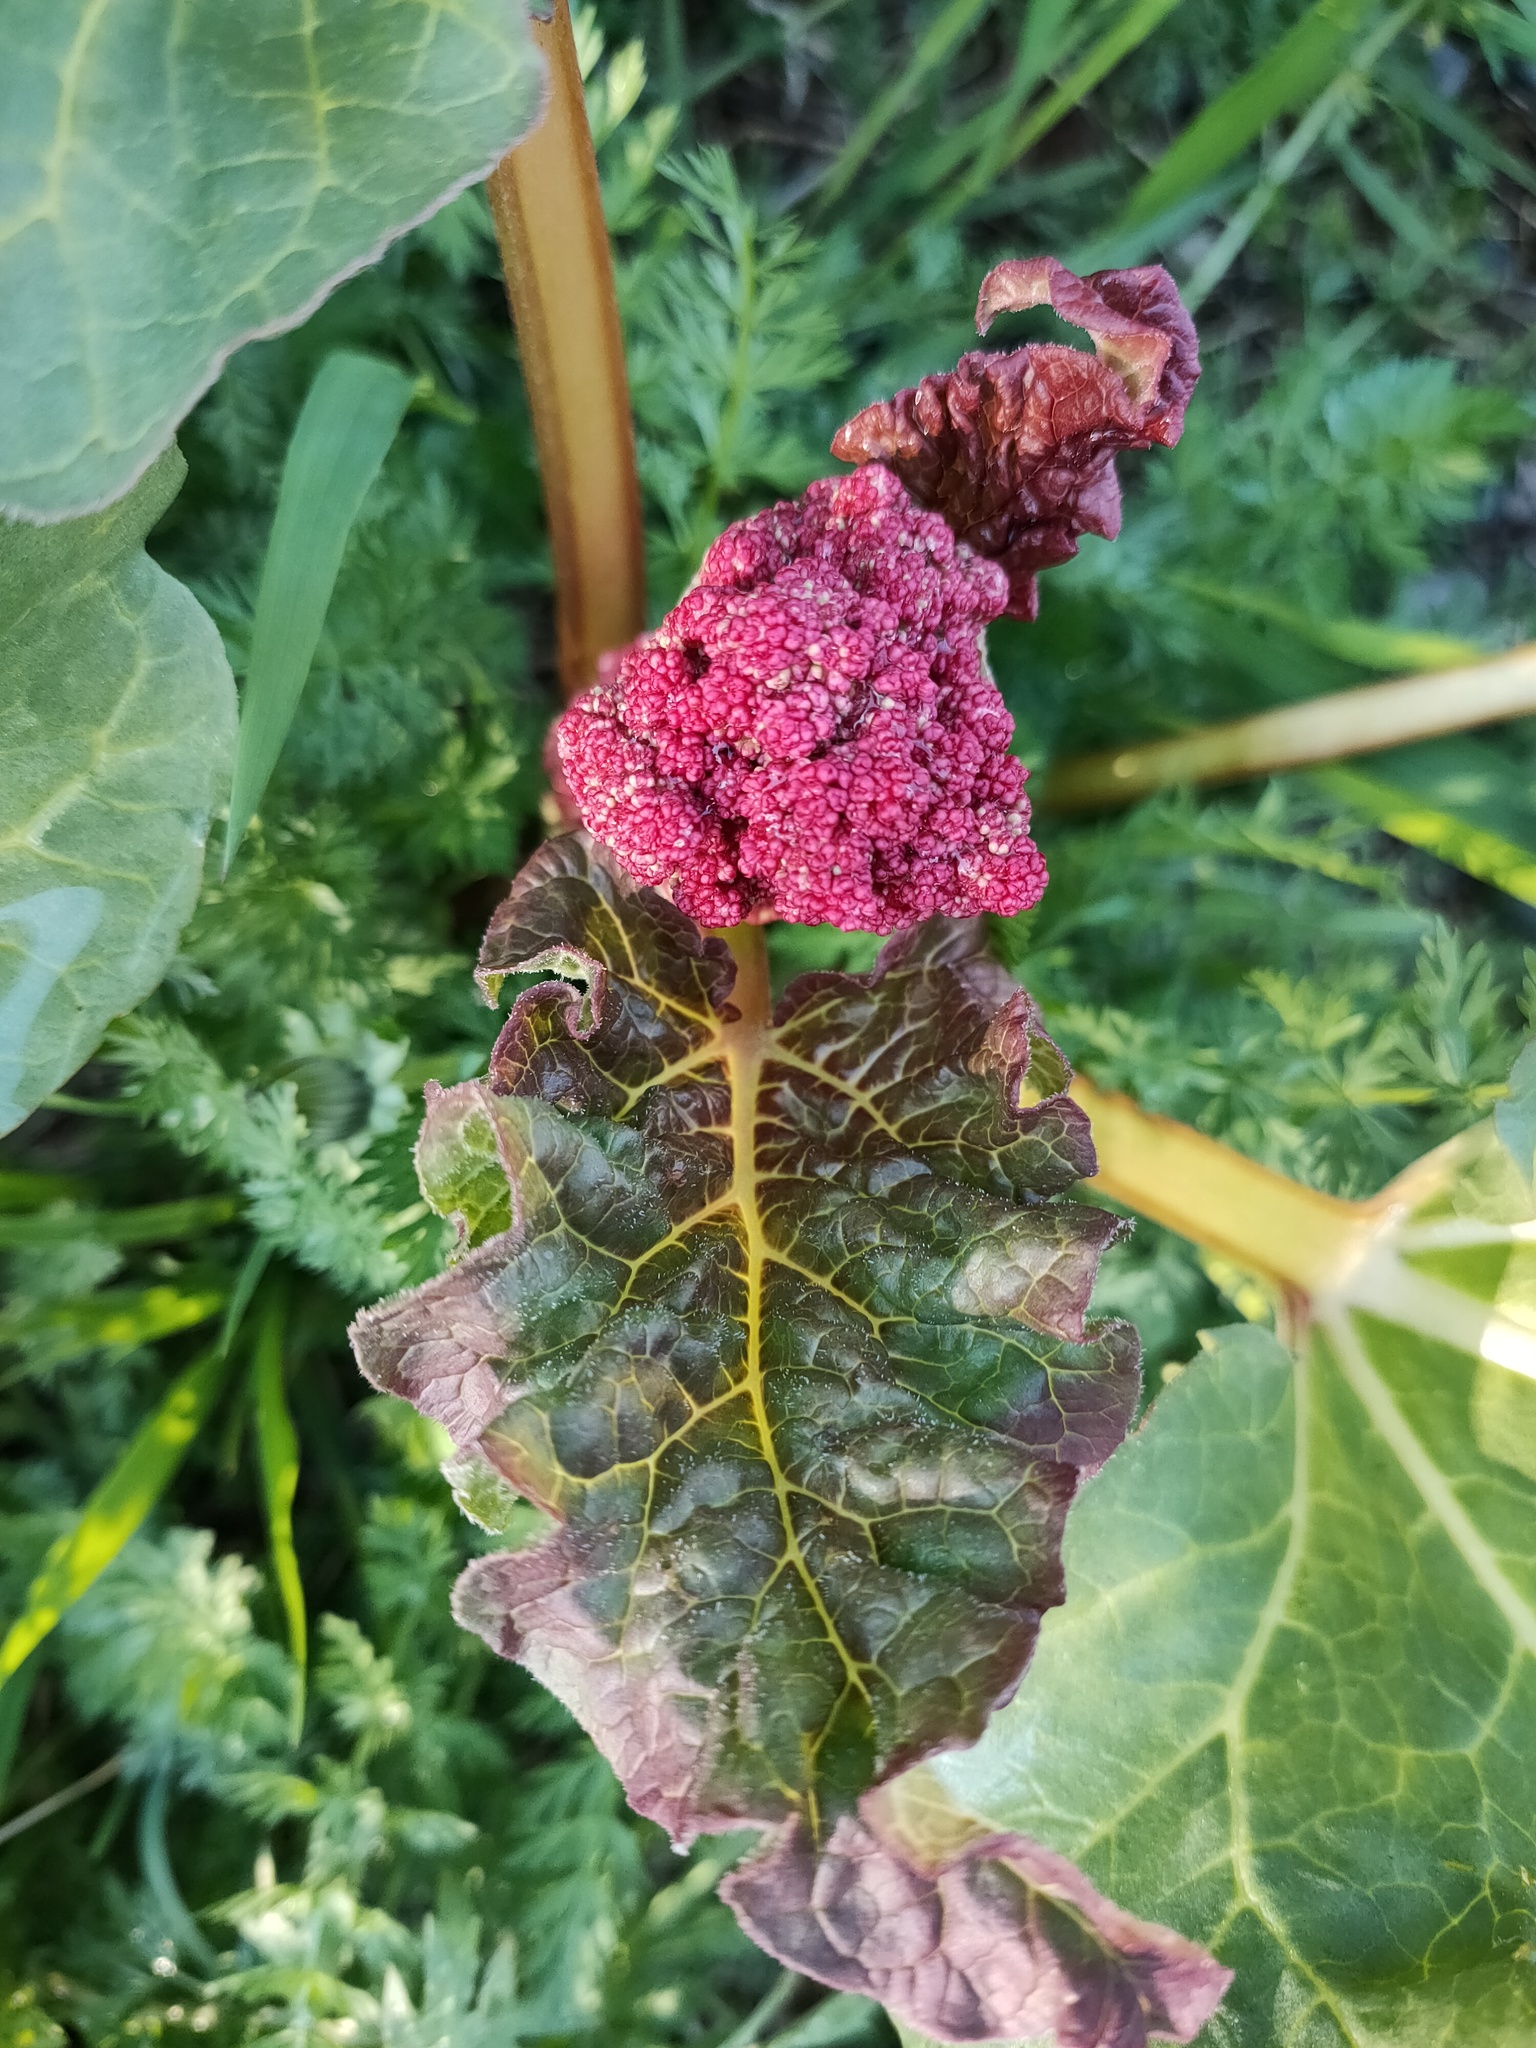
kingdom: Plantae
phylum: Tracheophyta
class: Magnoliopsida
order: Caryophyllales
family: Polygonaceae
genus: Rheum
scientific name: Rheum rhabarbarum
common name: Garden rhubarb
